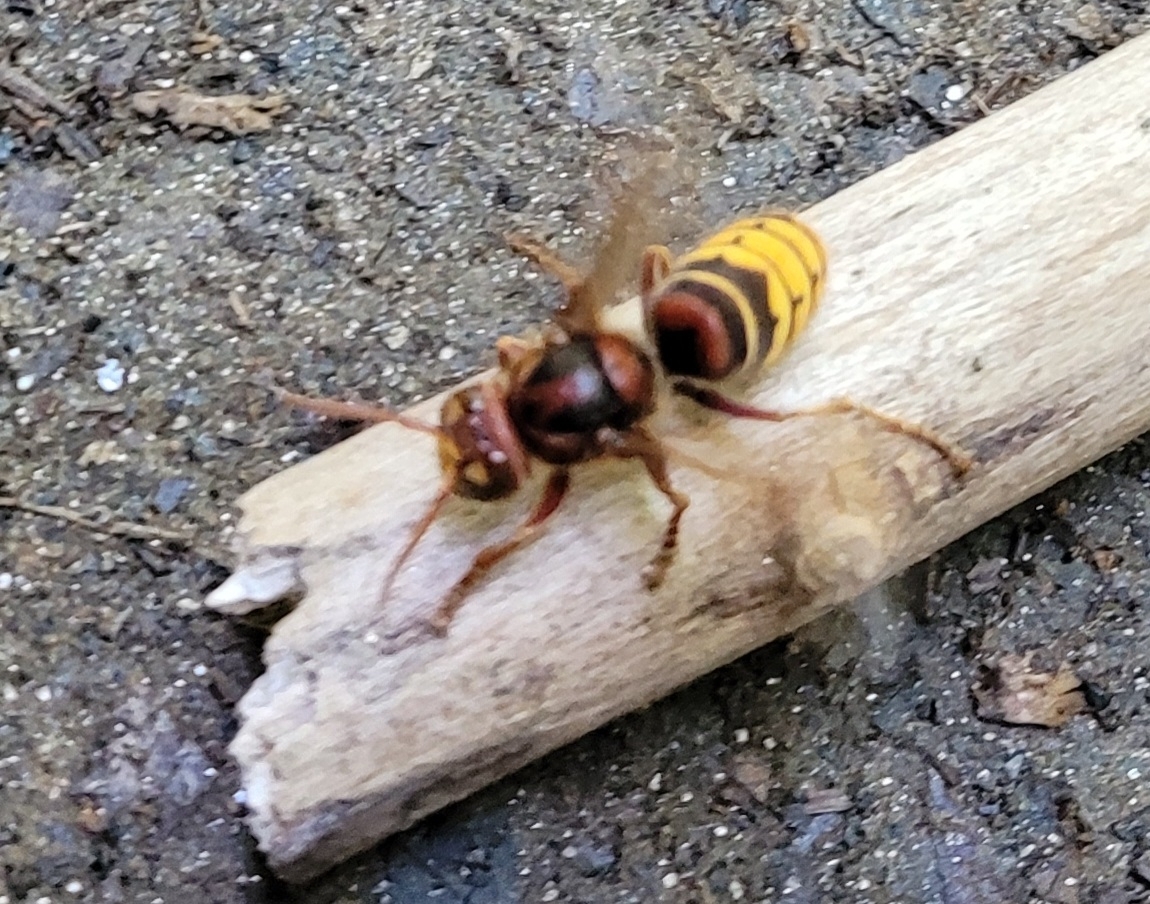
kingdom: Animalia
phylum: Arthropoda
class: Insecta
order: Hymenoptera
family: Vespidae
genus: Vespa
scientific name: Vespa crabro
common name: Hornet
